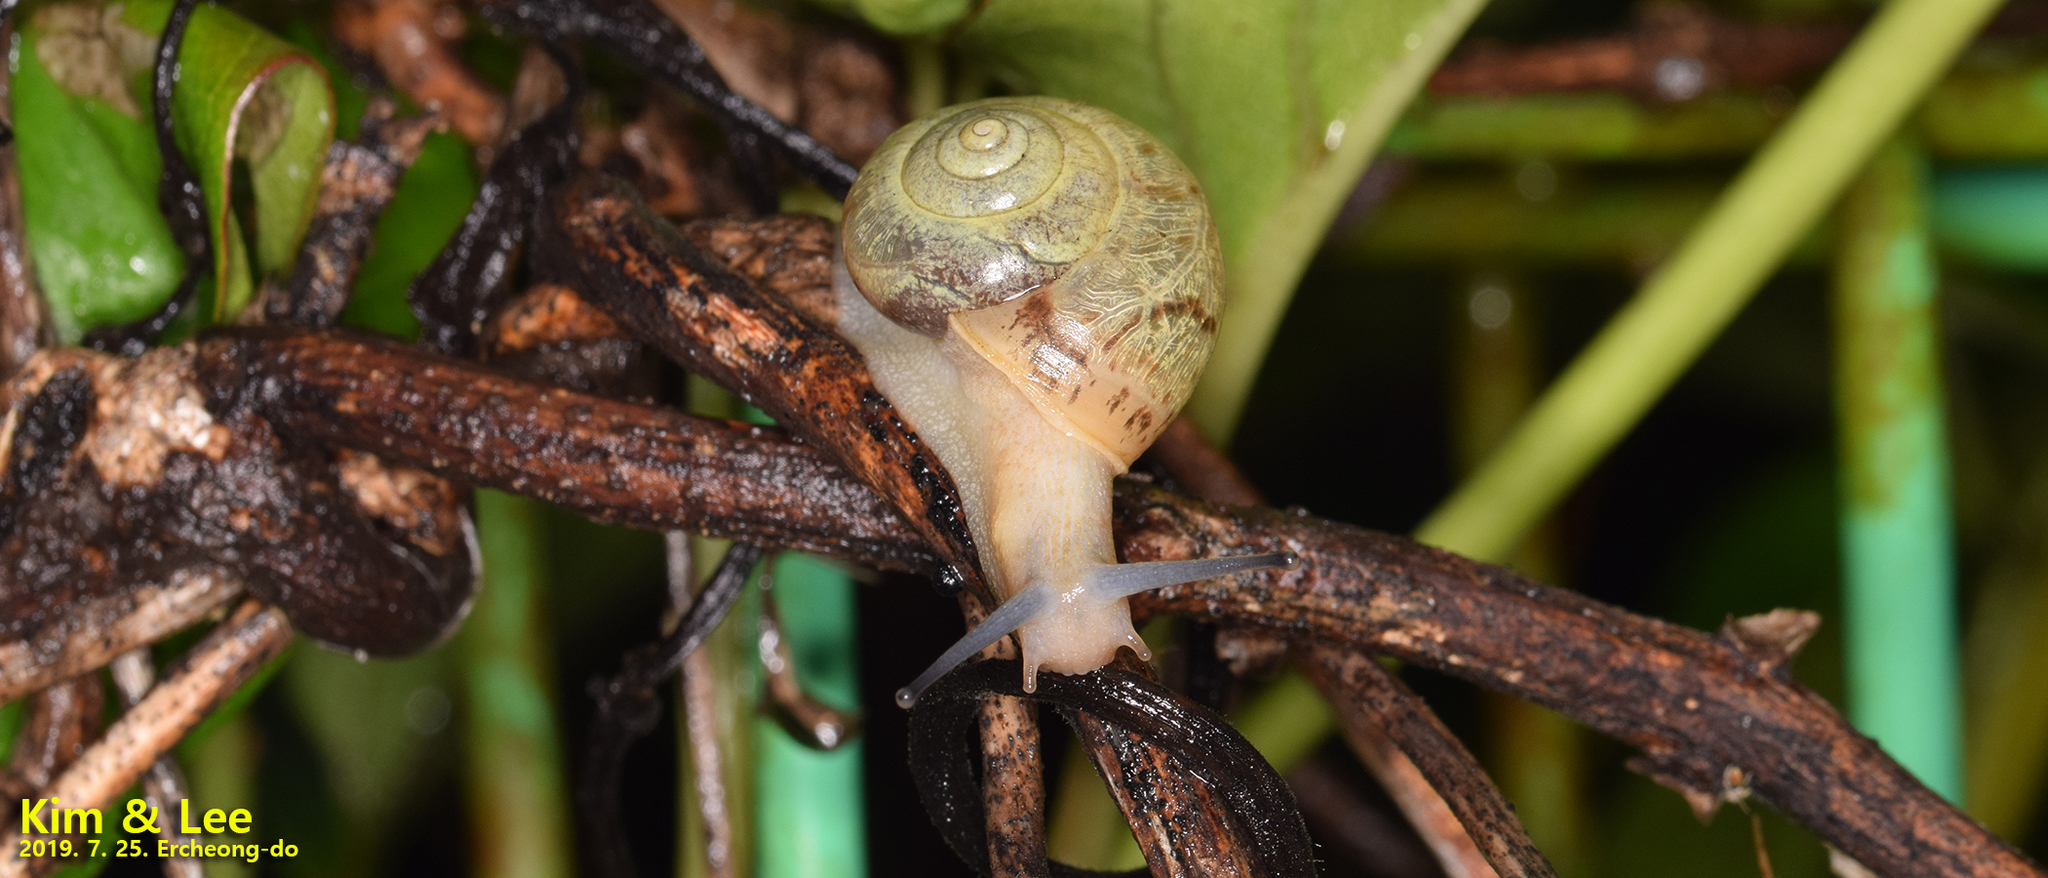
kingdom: Animalia
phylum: Mollusca
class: Gastropoda
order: Stylommatophora
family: Camaenidae
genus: Chosenelix
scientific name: Chosenelix problematica
